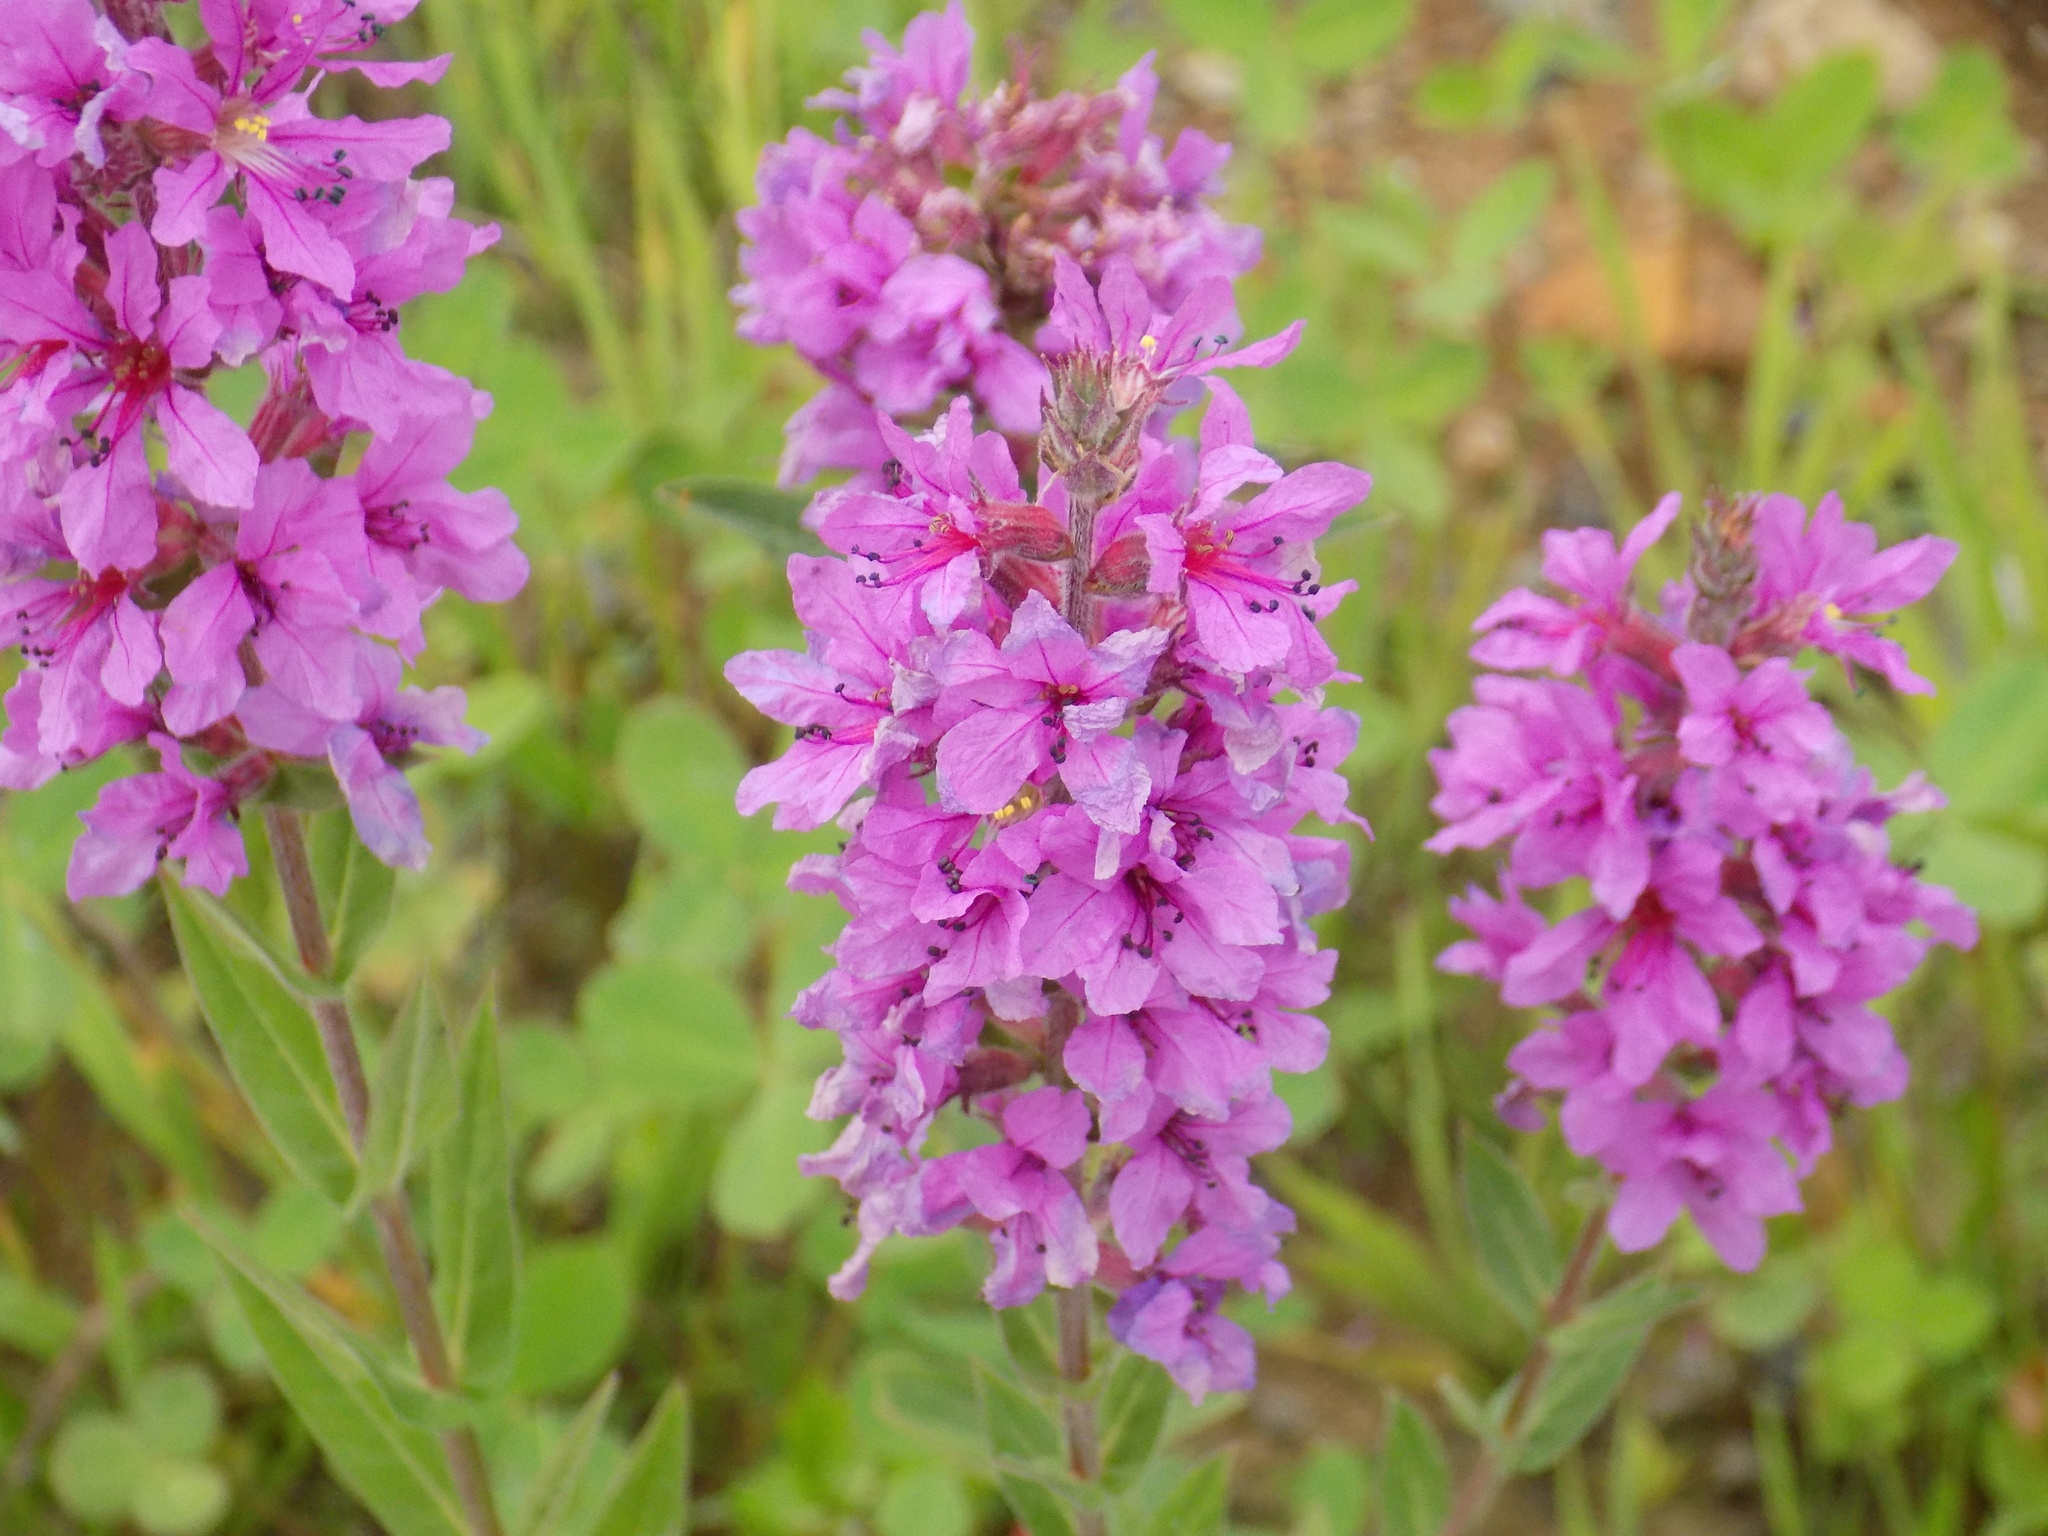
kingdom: Plantae
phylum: Tracheophyta
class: Magnoliopsida
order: Myrtales
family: Lythraceae
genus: Lythrum
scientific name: Lythrum salicaria
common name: Purple loosestrife
